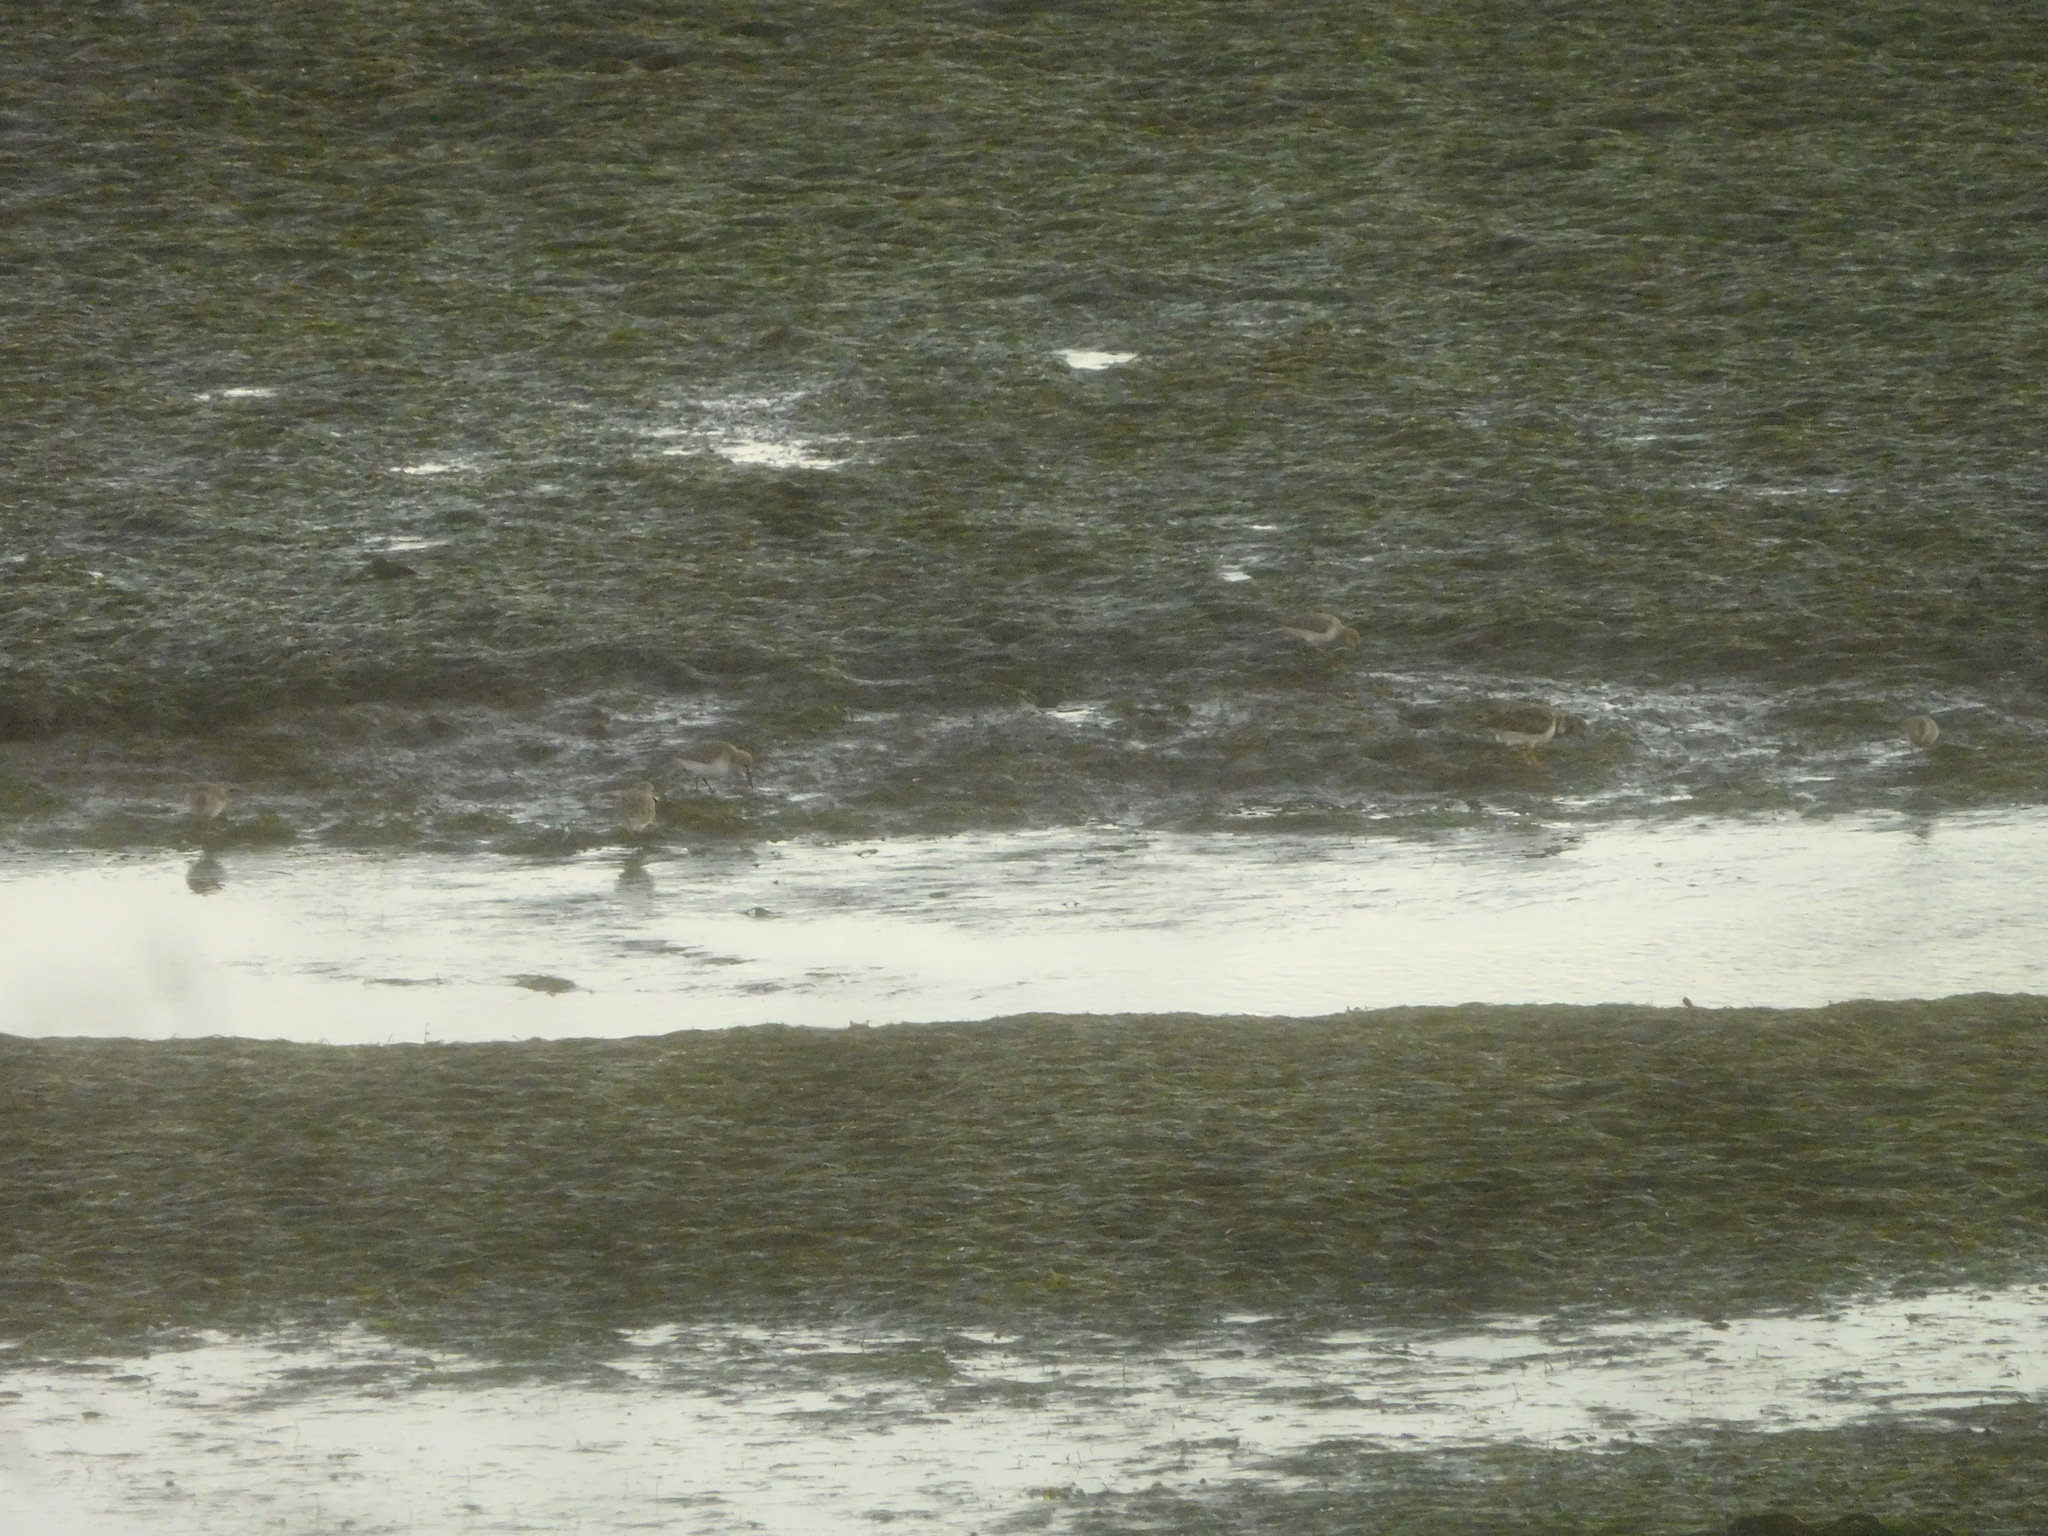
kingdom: Animalia
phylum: Chordata
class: Aves
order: Charadriiformes
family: Scolopacidae
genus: Calidris
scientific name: Calidris alpina
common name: Dunlin
